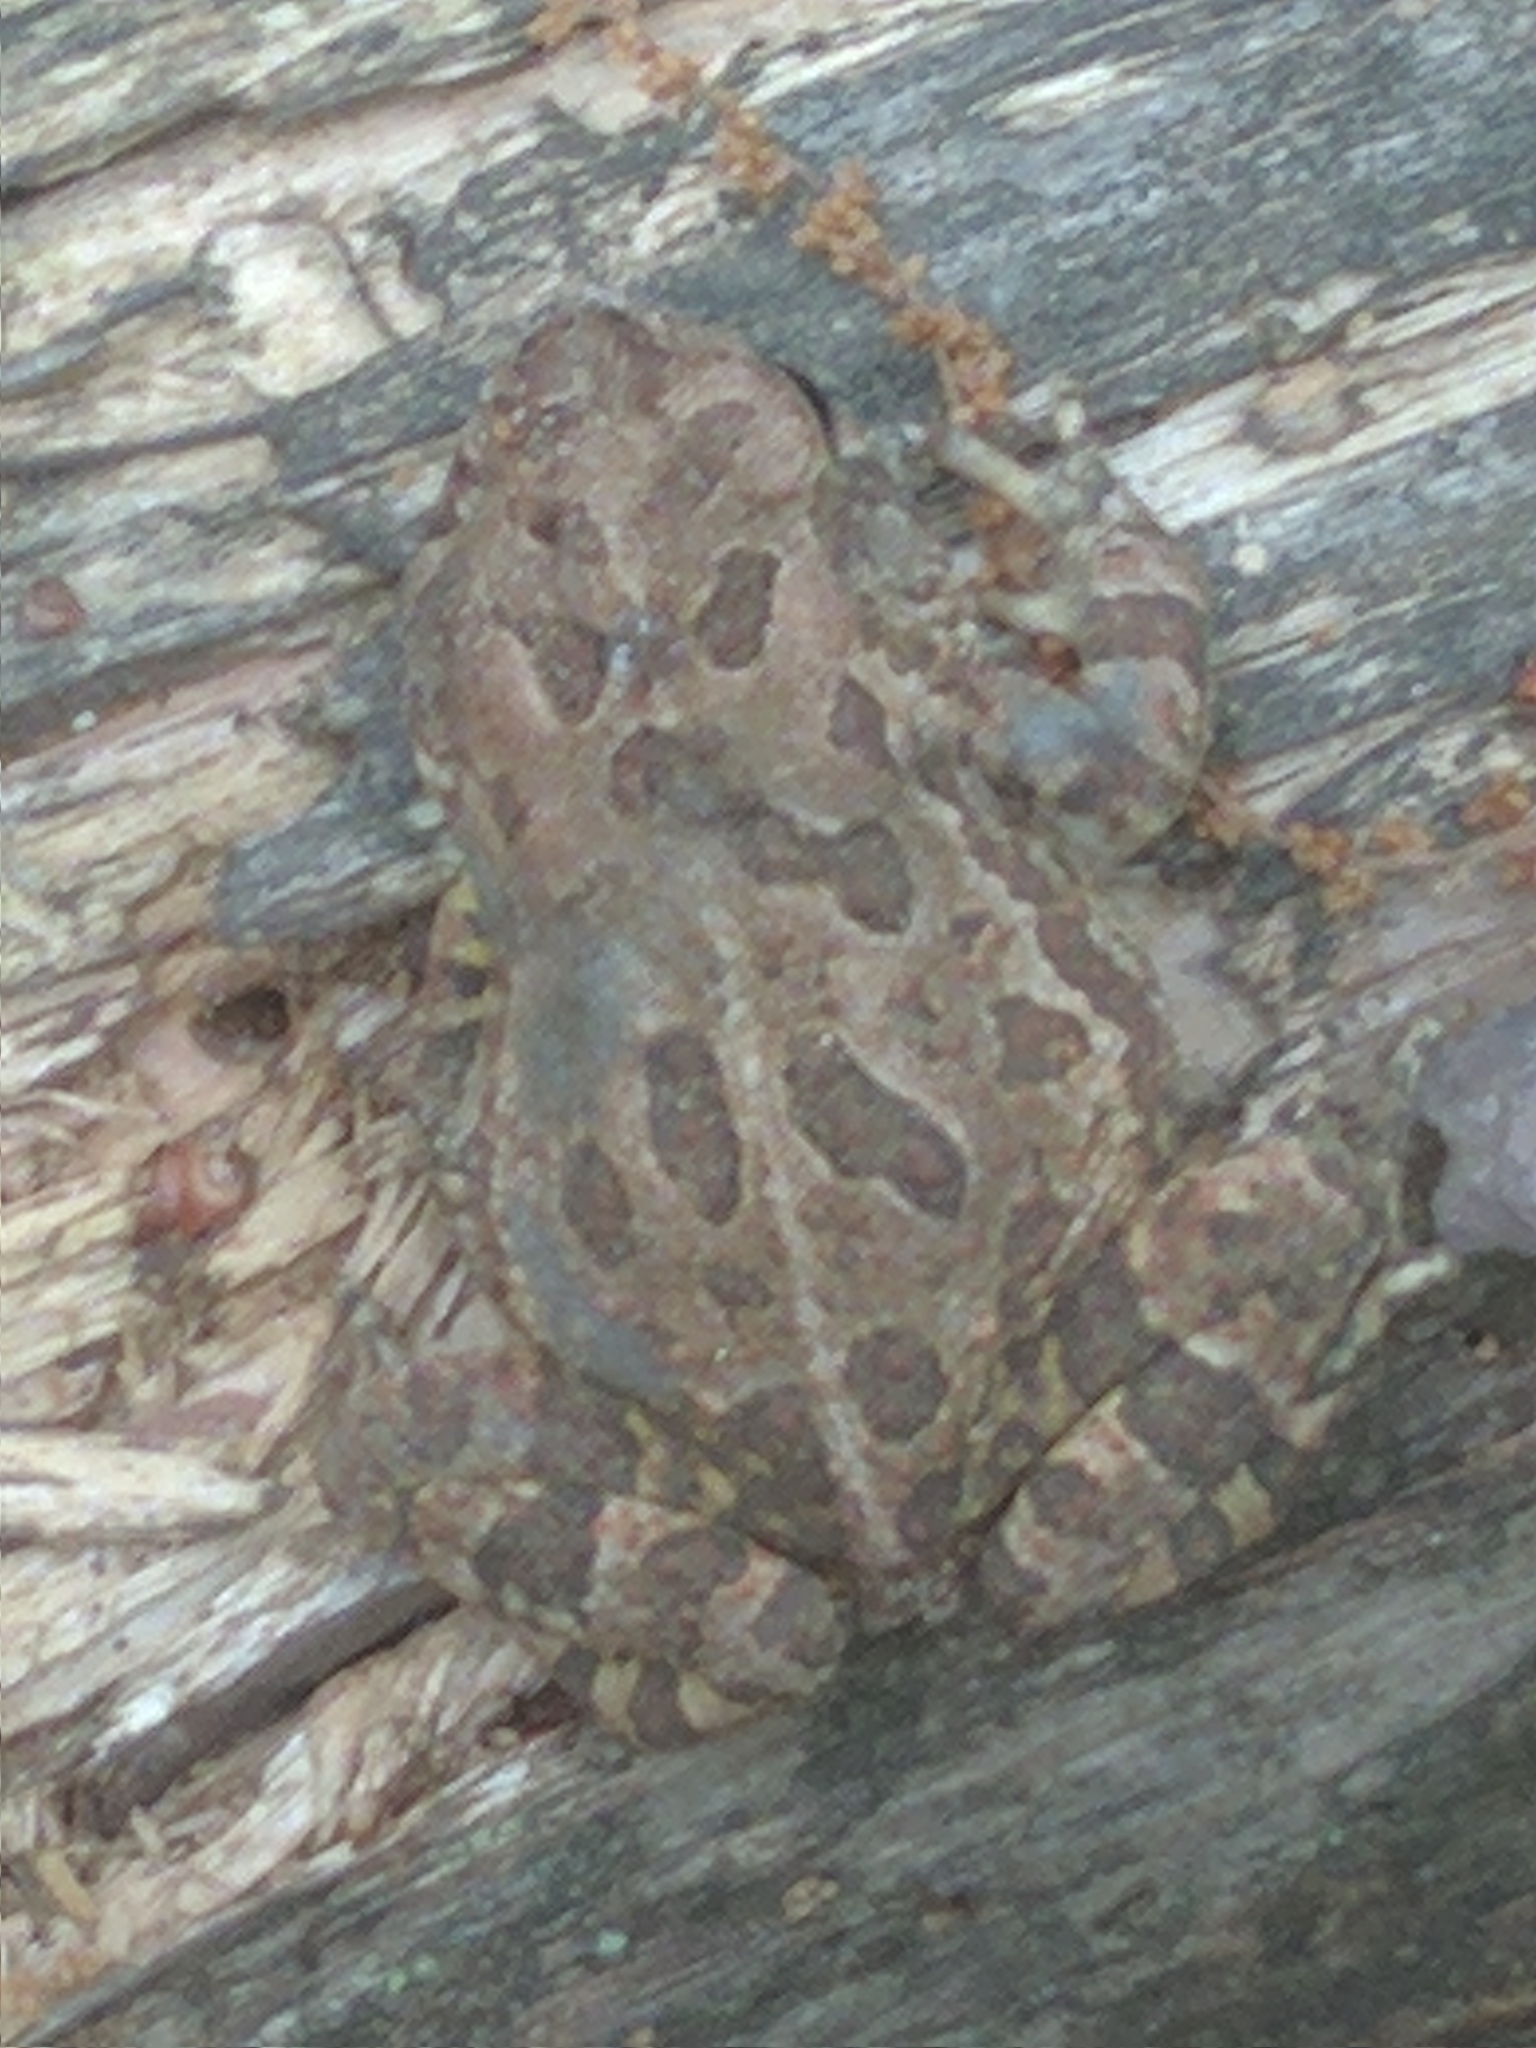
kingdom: Animalia
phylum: Chordata
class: Amphibia
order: Anura
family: Bufonidae
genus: Anaxyrus
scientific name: Anaxyrus fowleri
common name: Fowler's toad
